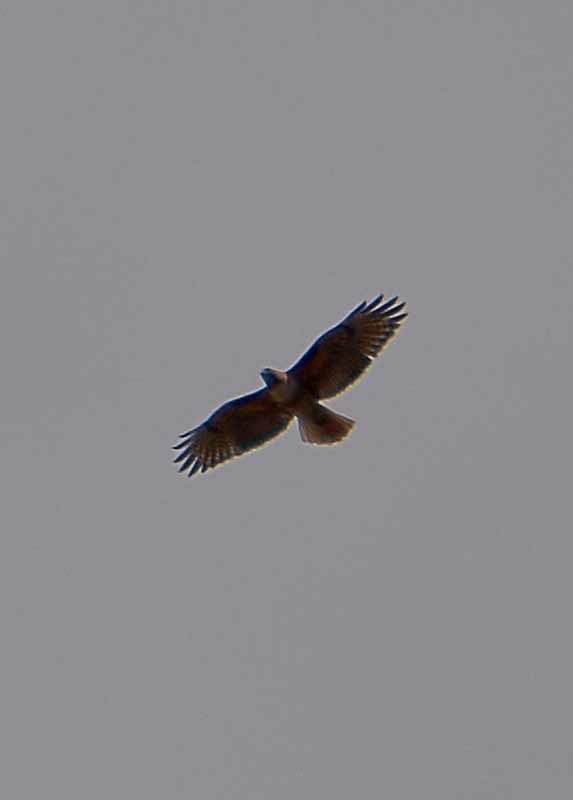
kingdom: Animalia
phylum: Chordata
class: Aves
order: Accipitriformes
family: Accipitridae
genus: Buteo
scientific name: Buteo jamaicensis
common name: Red-tailed hawk
